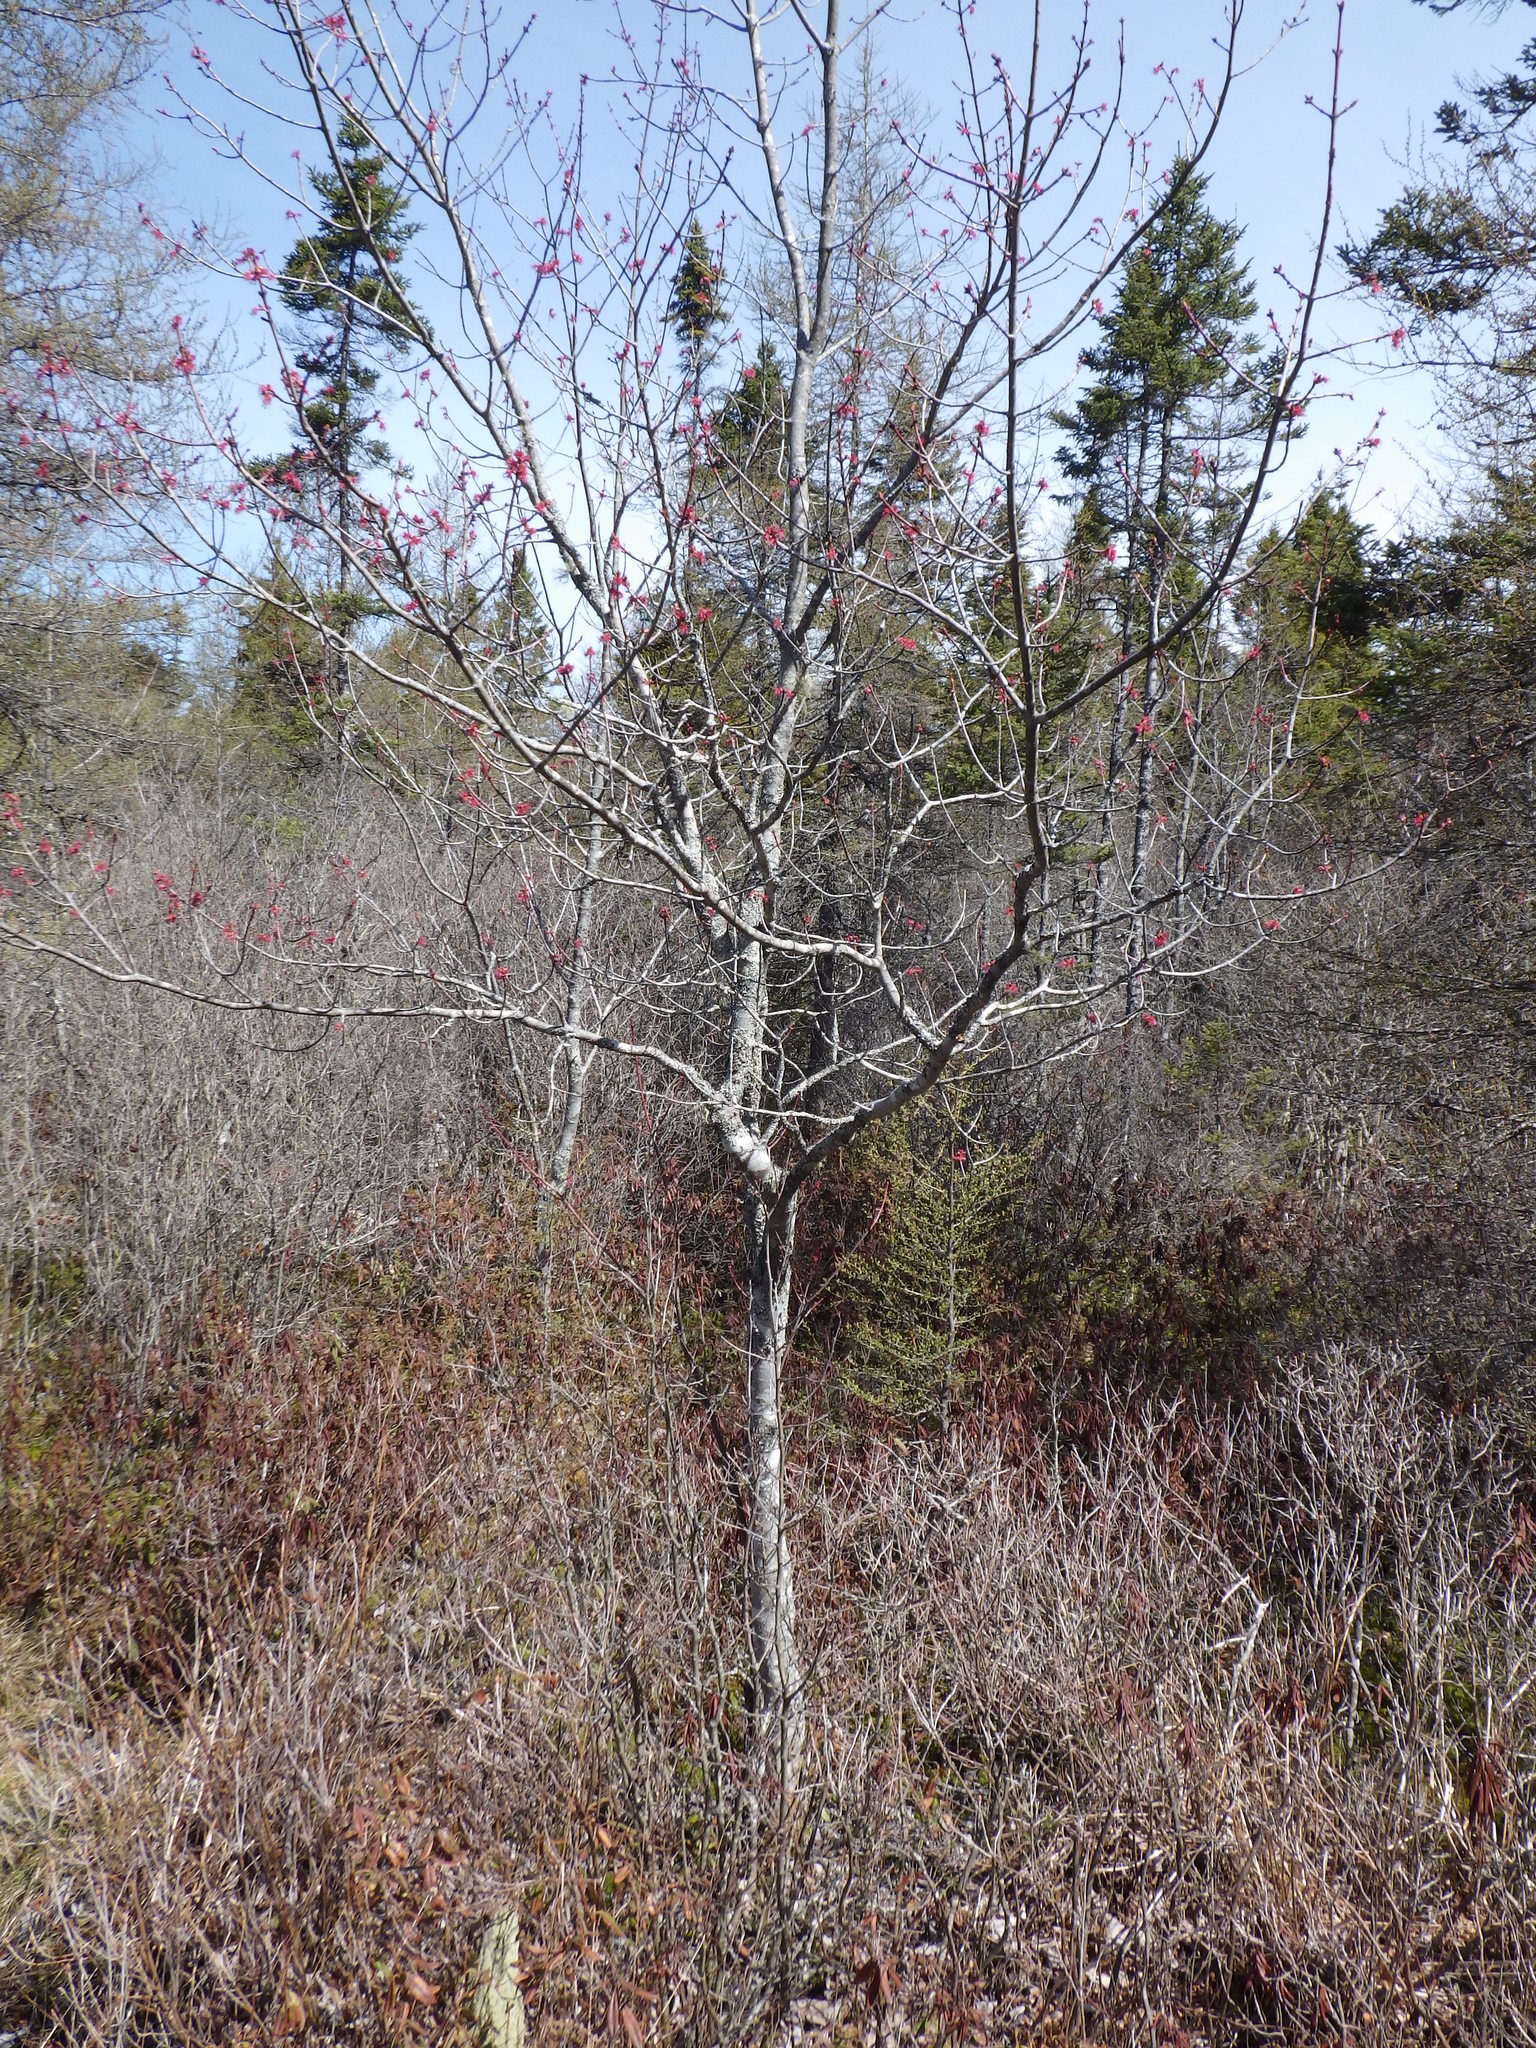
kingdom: Plantae
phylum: Tracheophyta
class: Magnoliopsida
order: Sapindales
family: Sapindaceae
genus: Acer
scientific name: Acer rubrum
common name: Red maple
